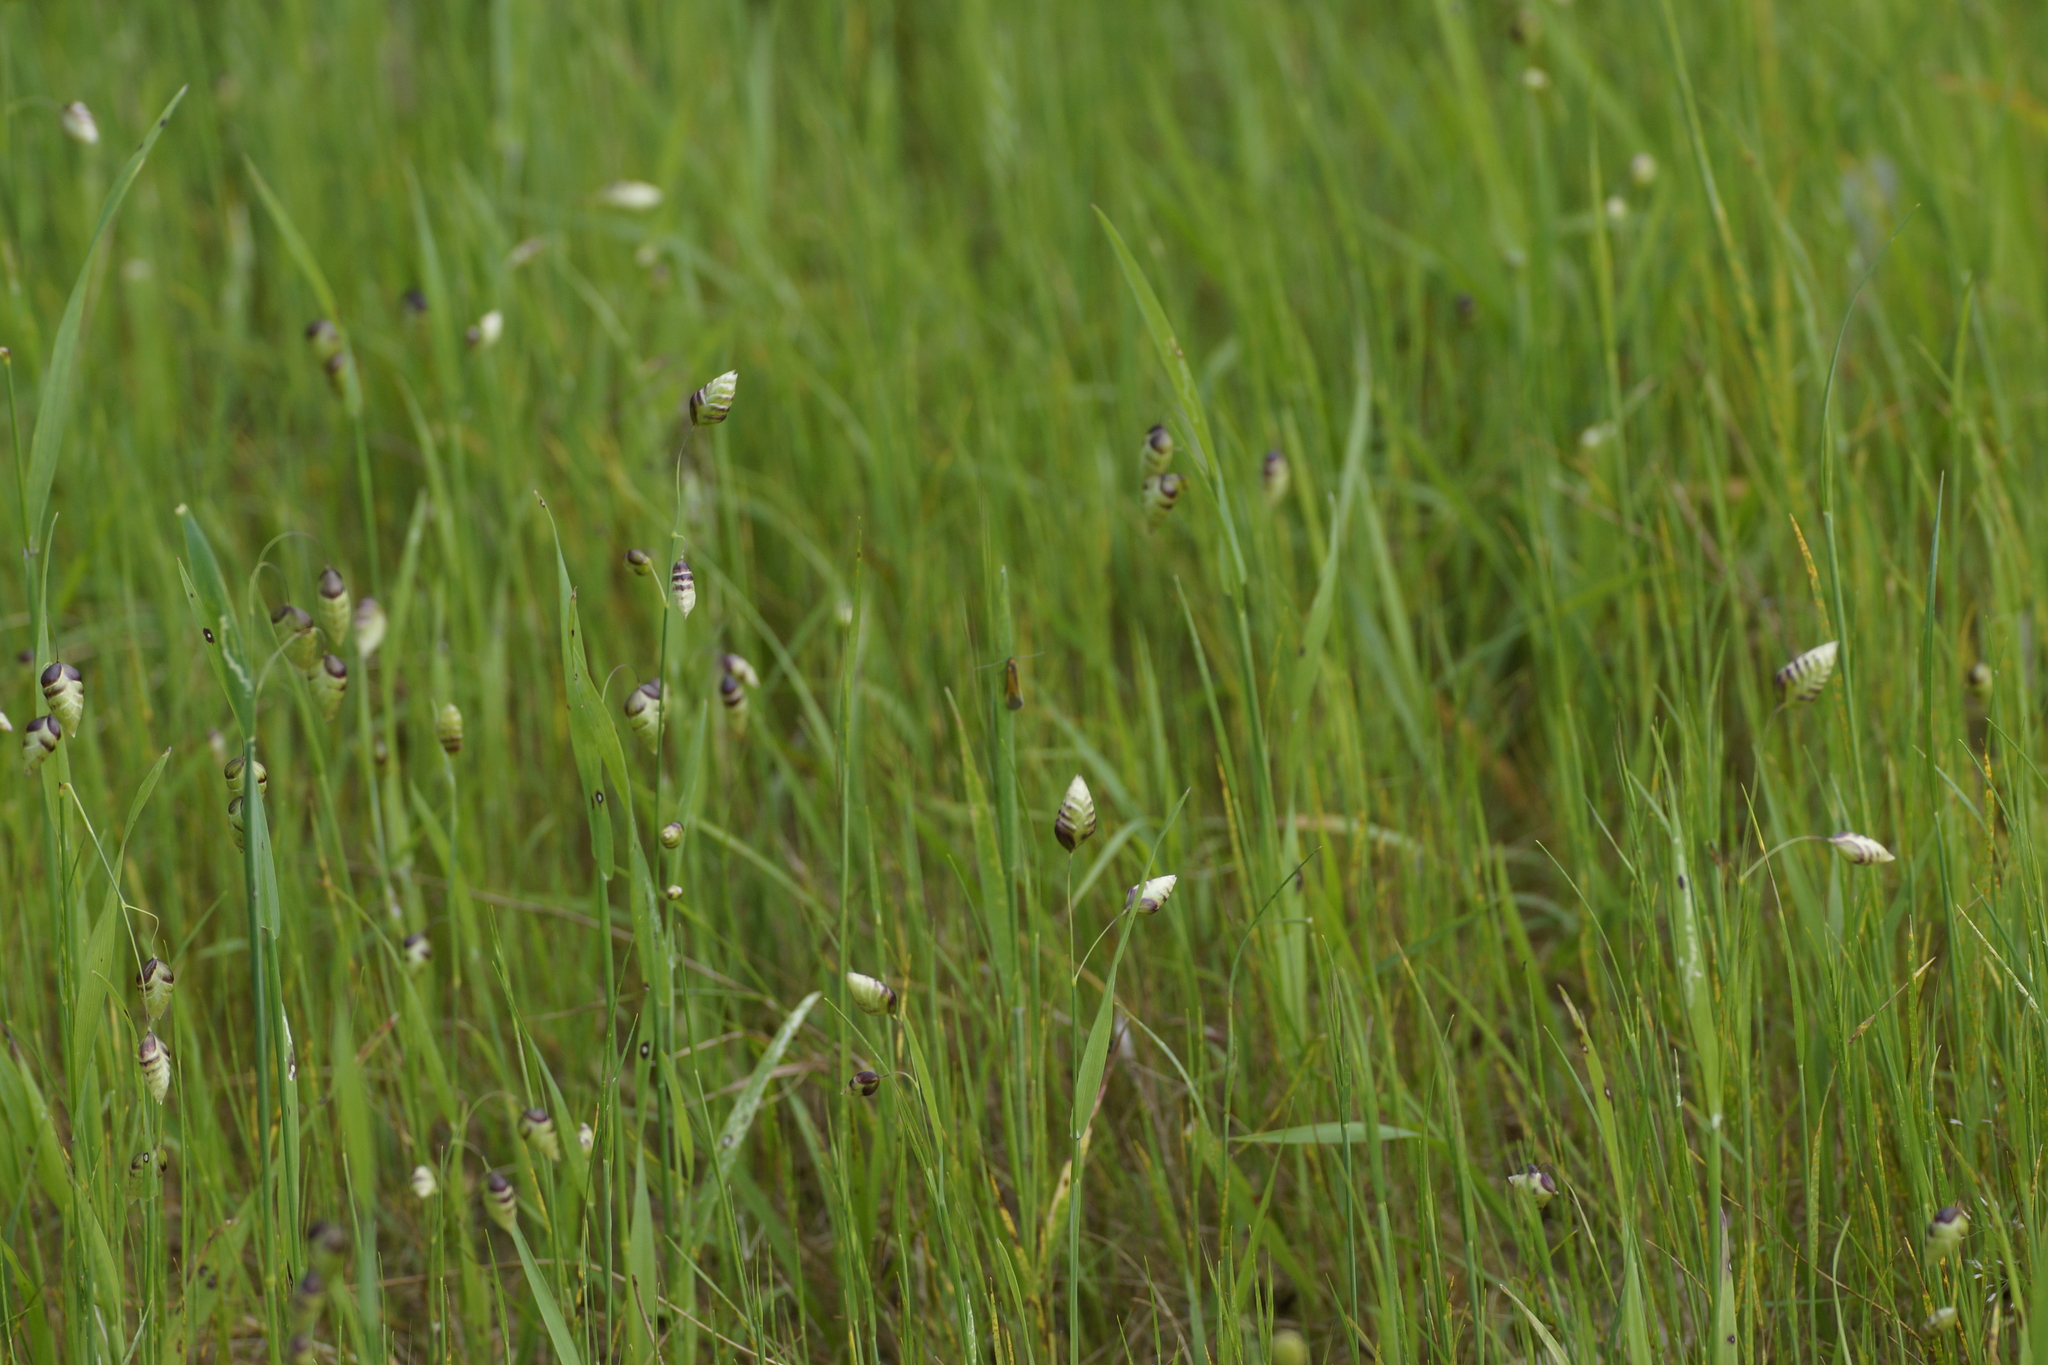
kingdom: Plantae
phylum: Tracheophyta
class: Liliopsida
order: Poales
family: Poaceae
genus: Briza
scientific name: Briza maxima
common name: Big quakinggrass
